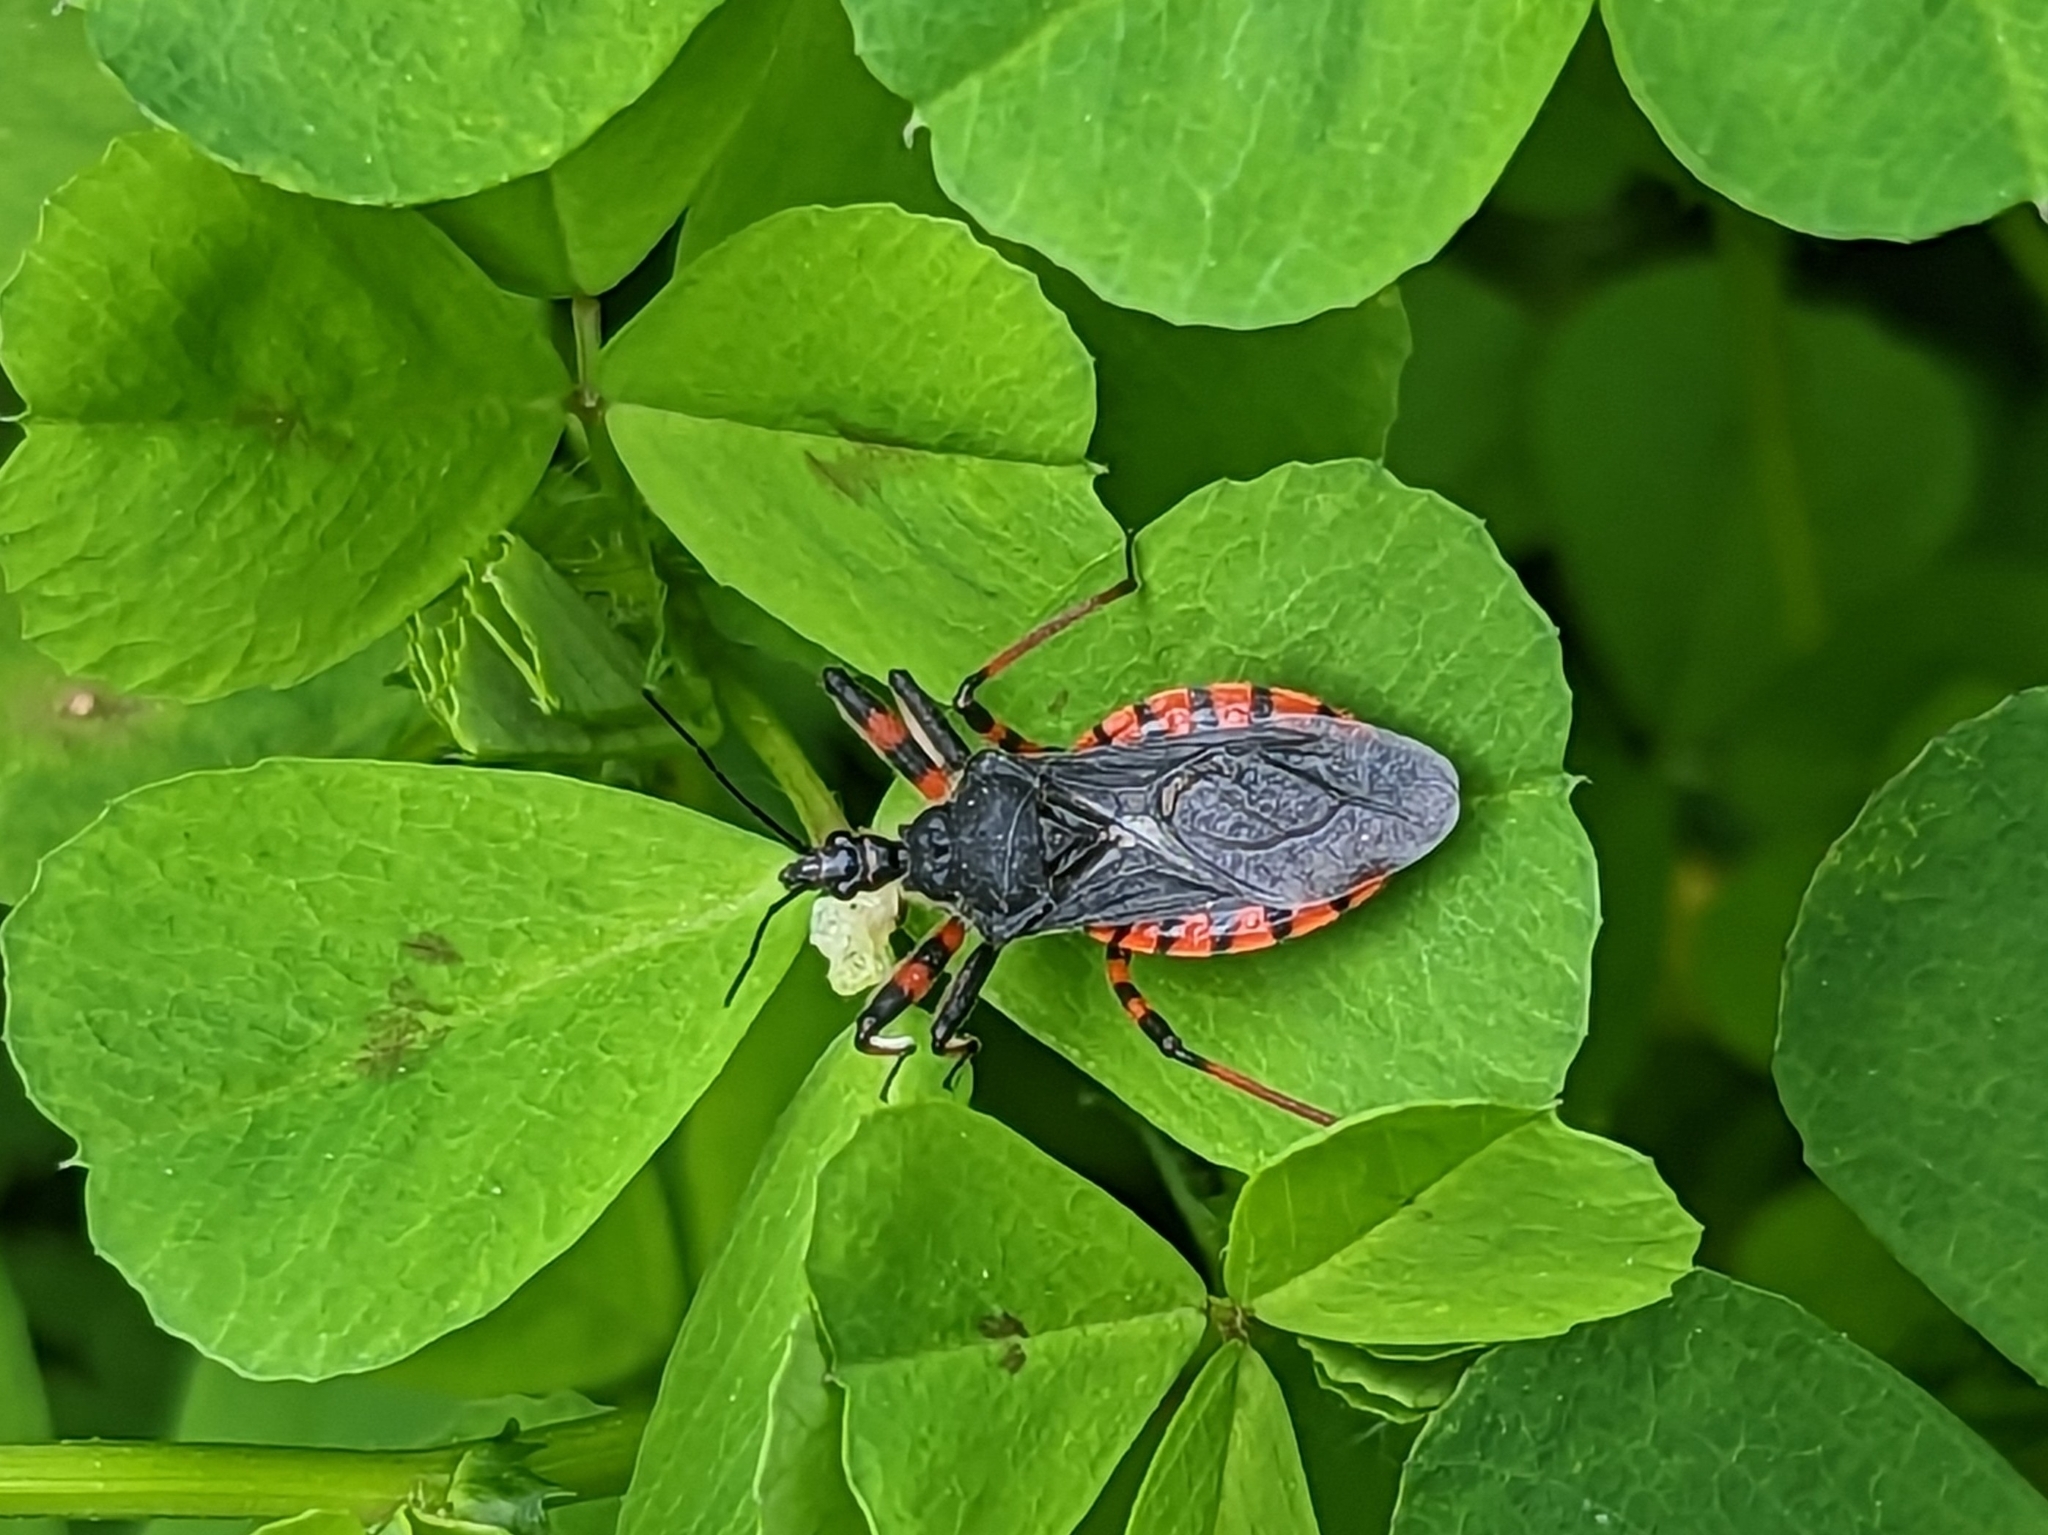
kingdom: Animalia
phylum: Arthropoda
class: Insecta
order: Hemiptera
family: Reduviidae
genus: Rhynocoris
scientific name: Rhynocoris annulatus
